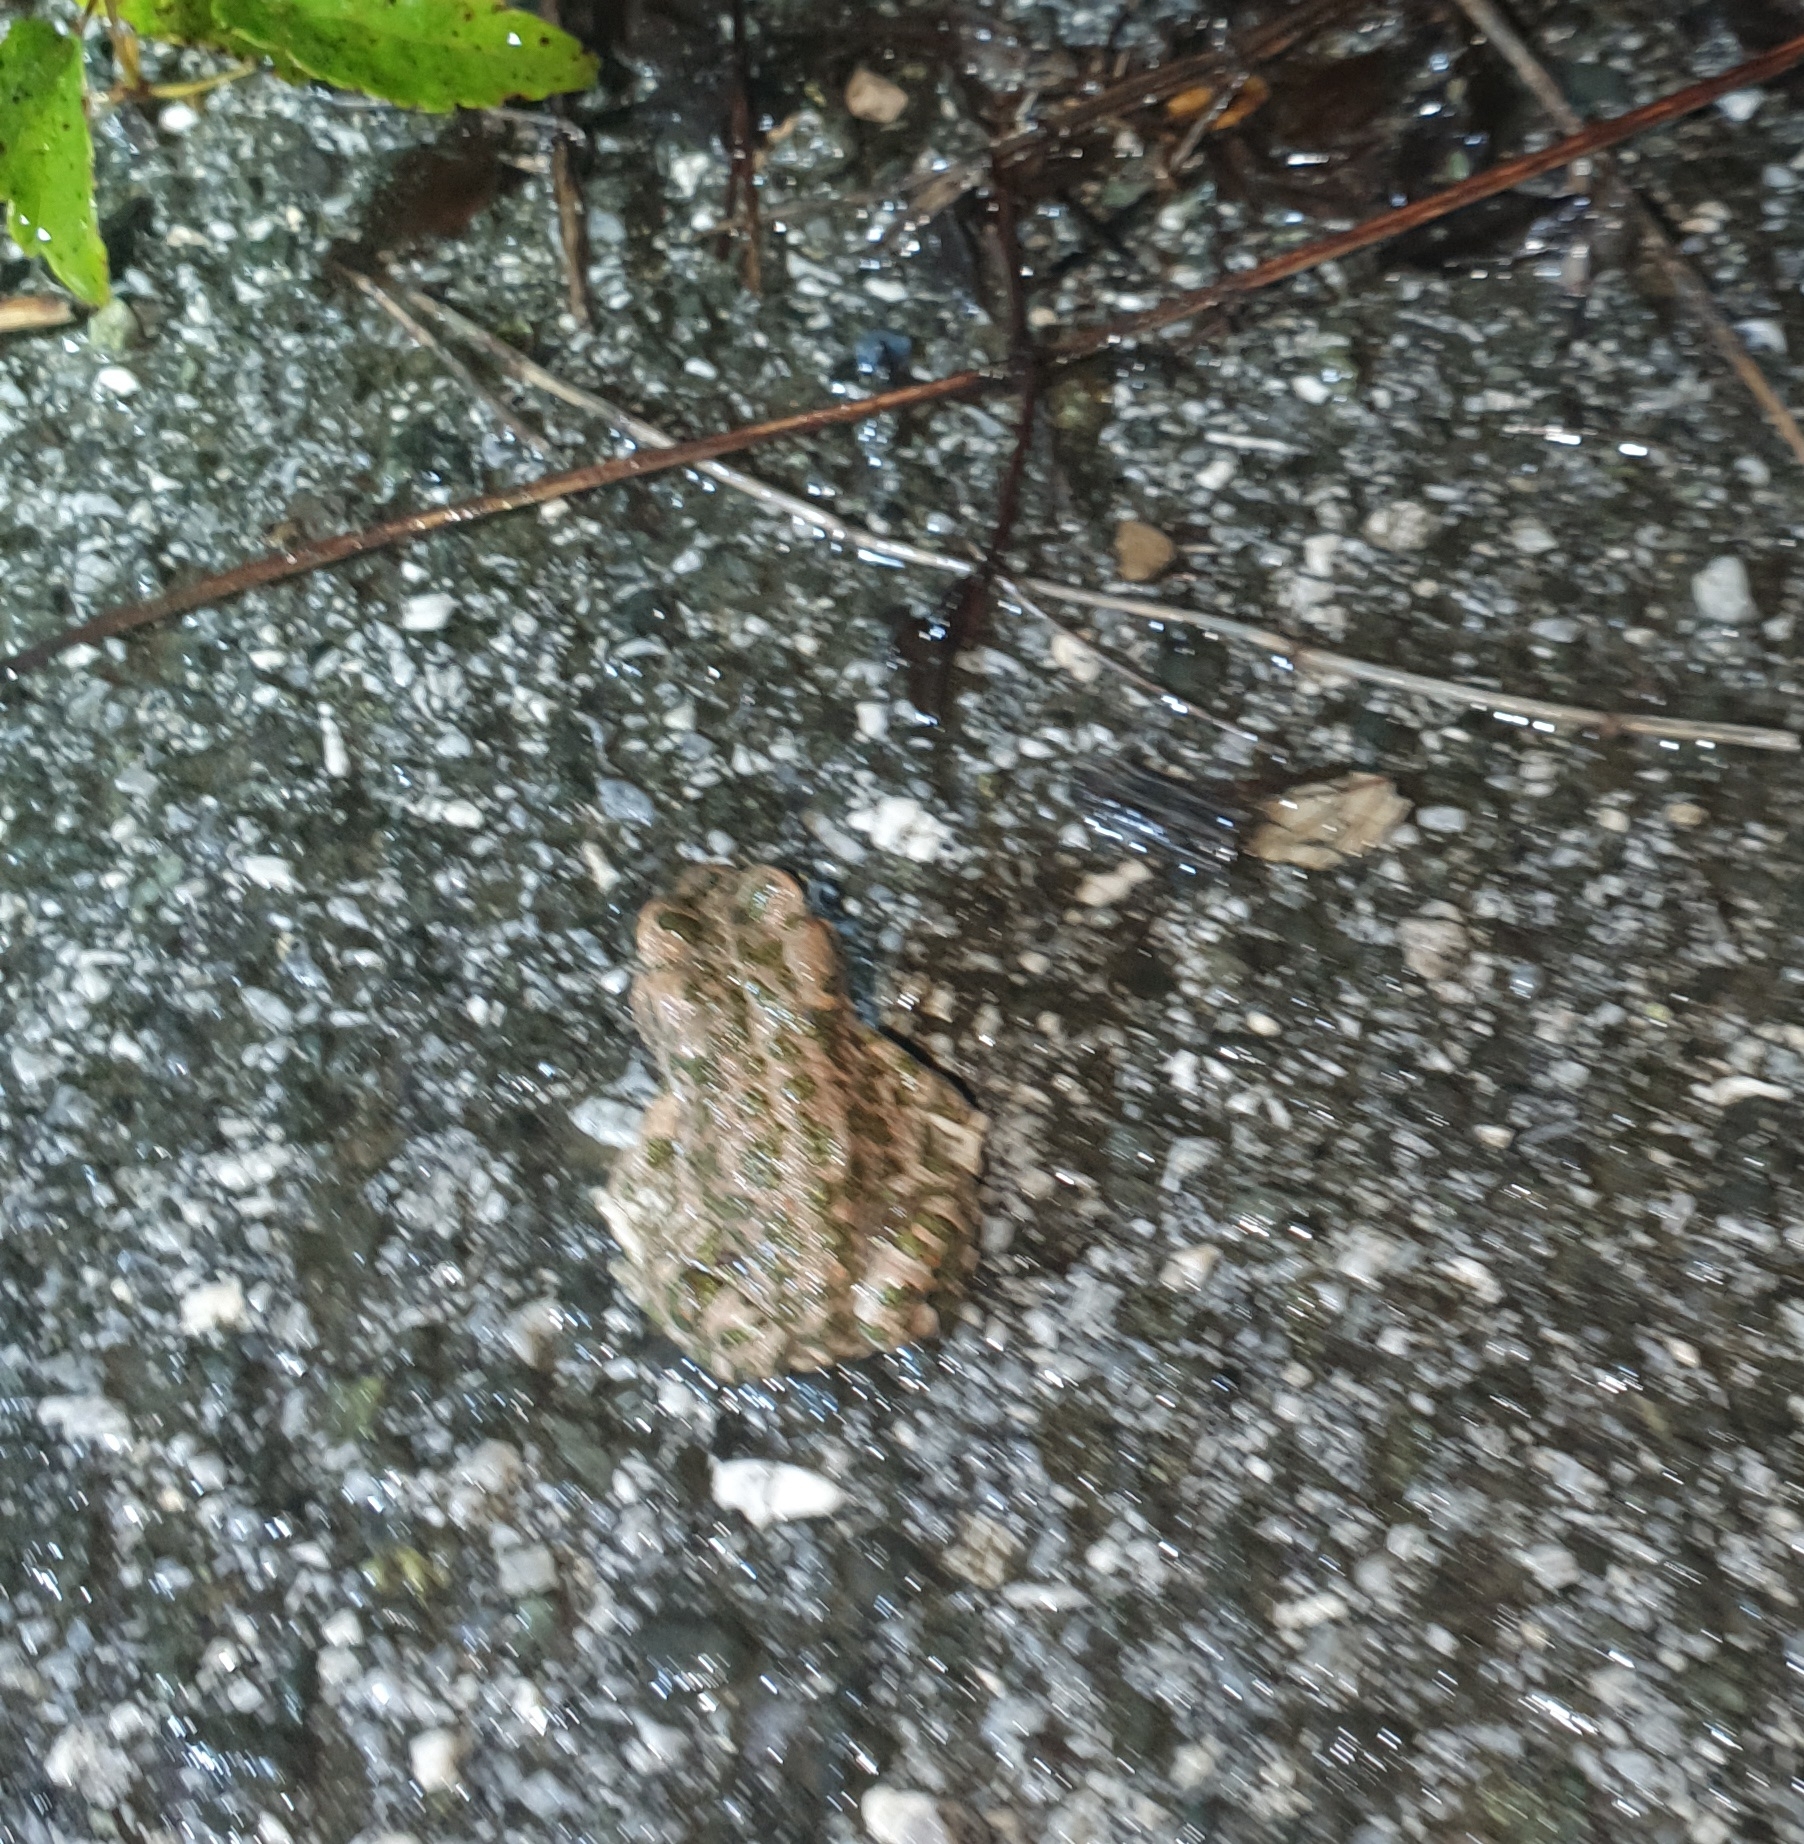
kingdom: Animalia
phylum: Chordata
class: Amphibia
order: Anura
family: Bufonidae
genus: Bufotes
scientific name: Bufotes viridis
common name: European green toad
